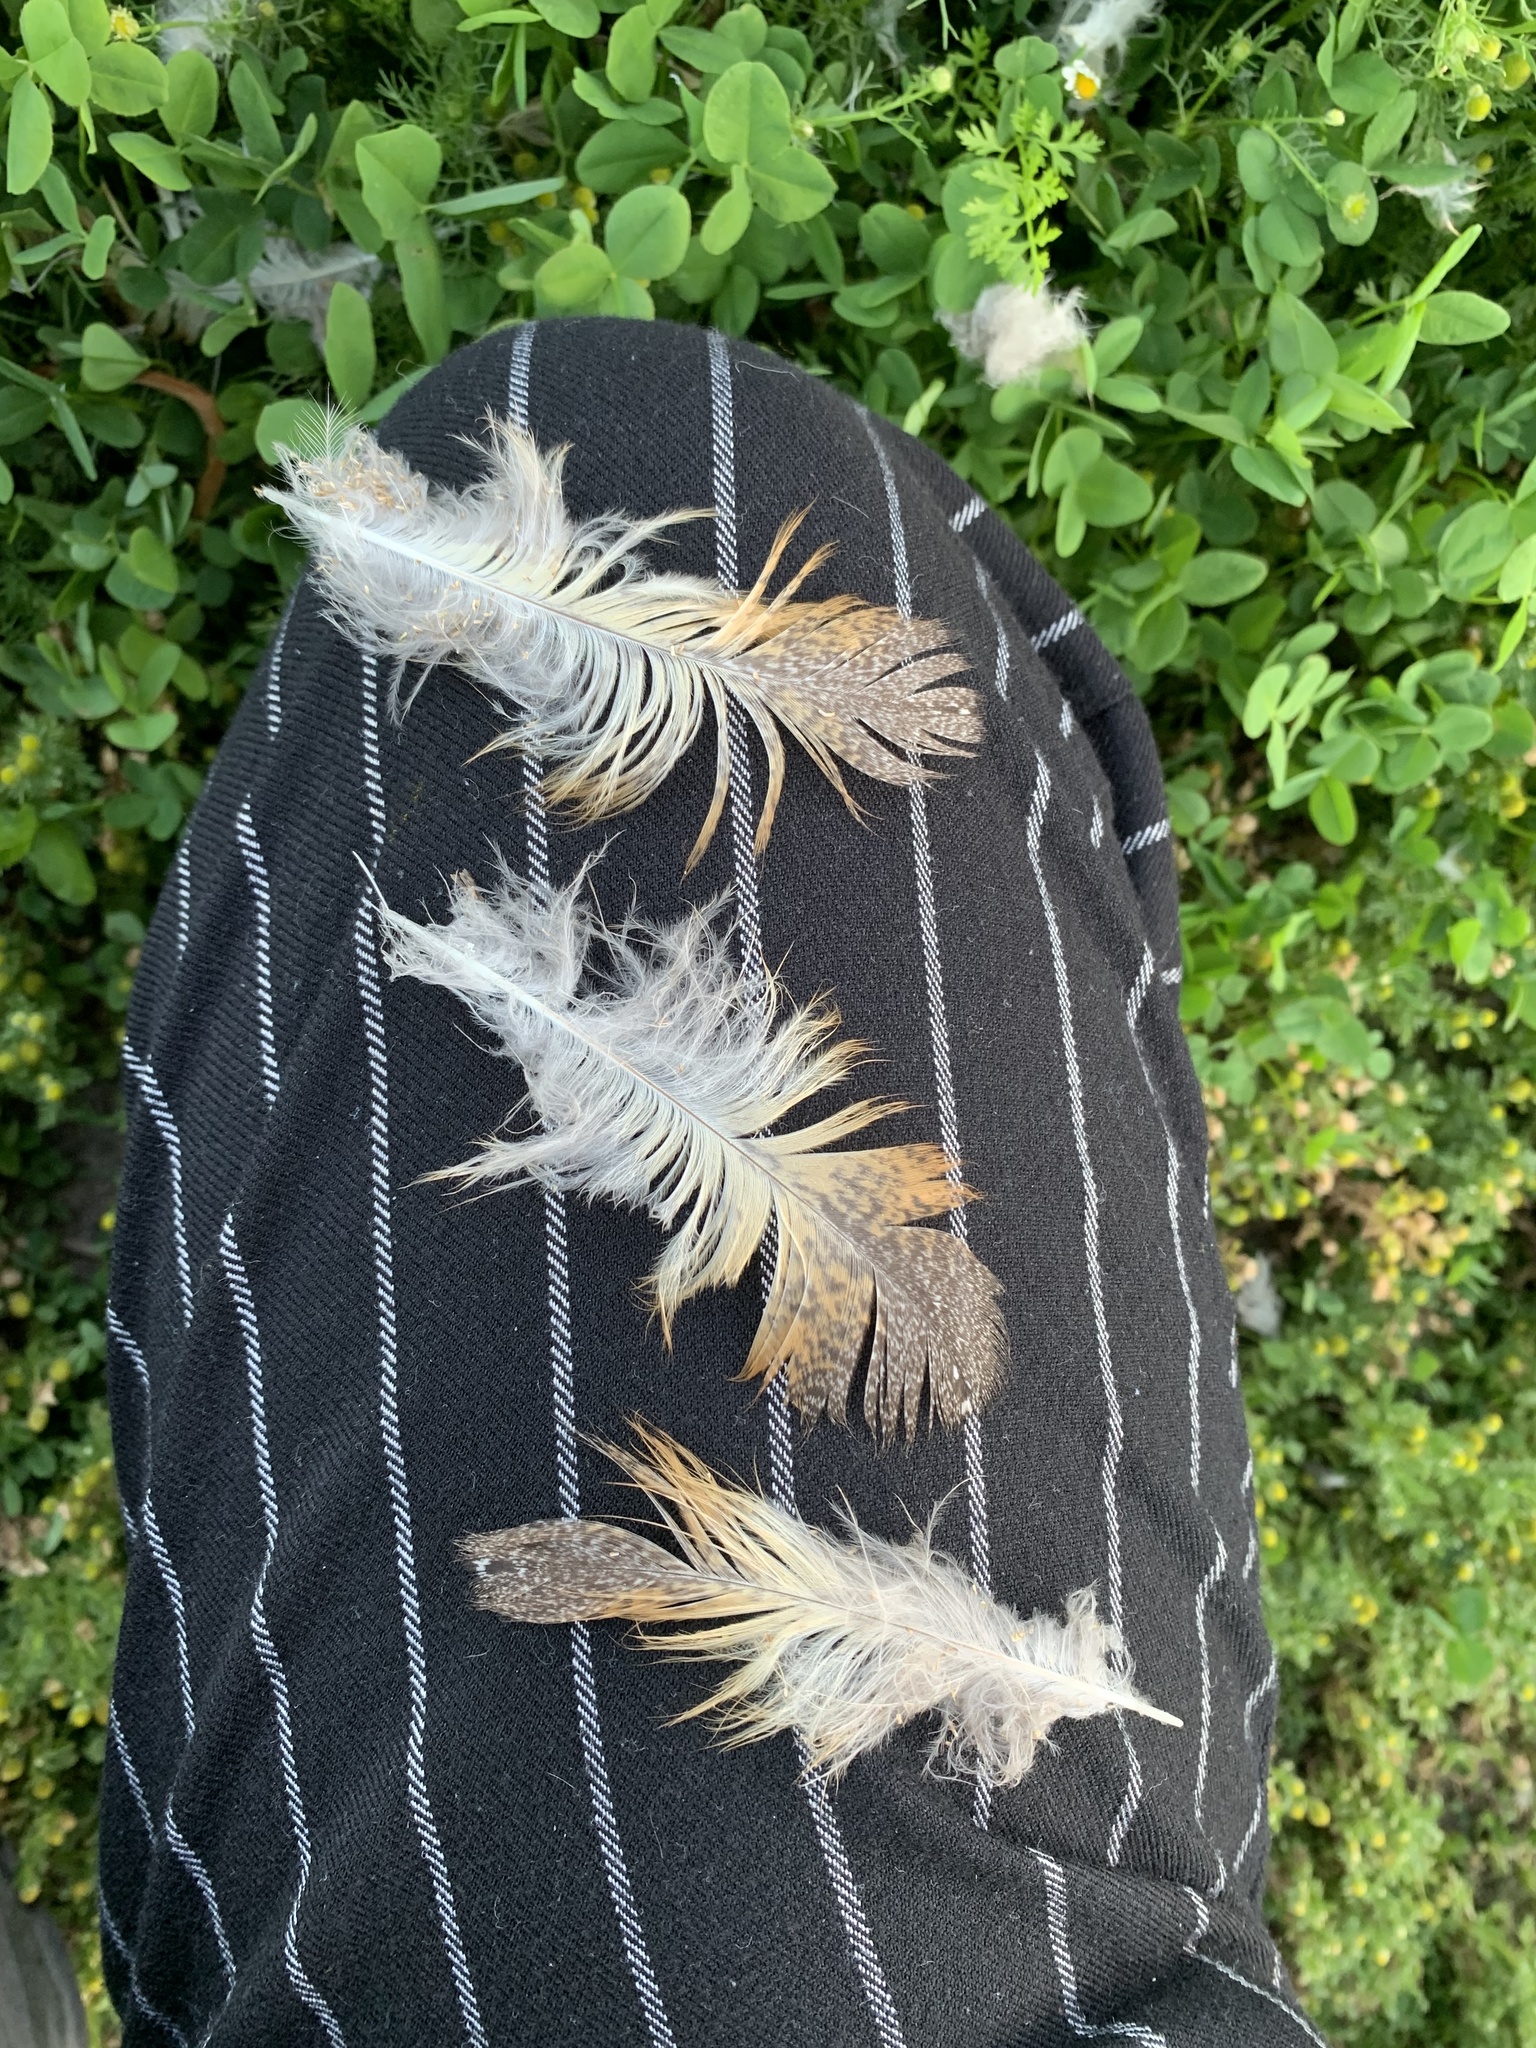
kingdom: Animalia
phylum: Chordata
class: Aves
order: Strigiformes
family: Tytonidae
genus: Tyto
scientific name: Tyto furcata
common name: American barn owl
